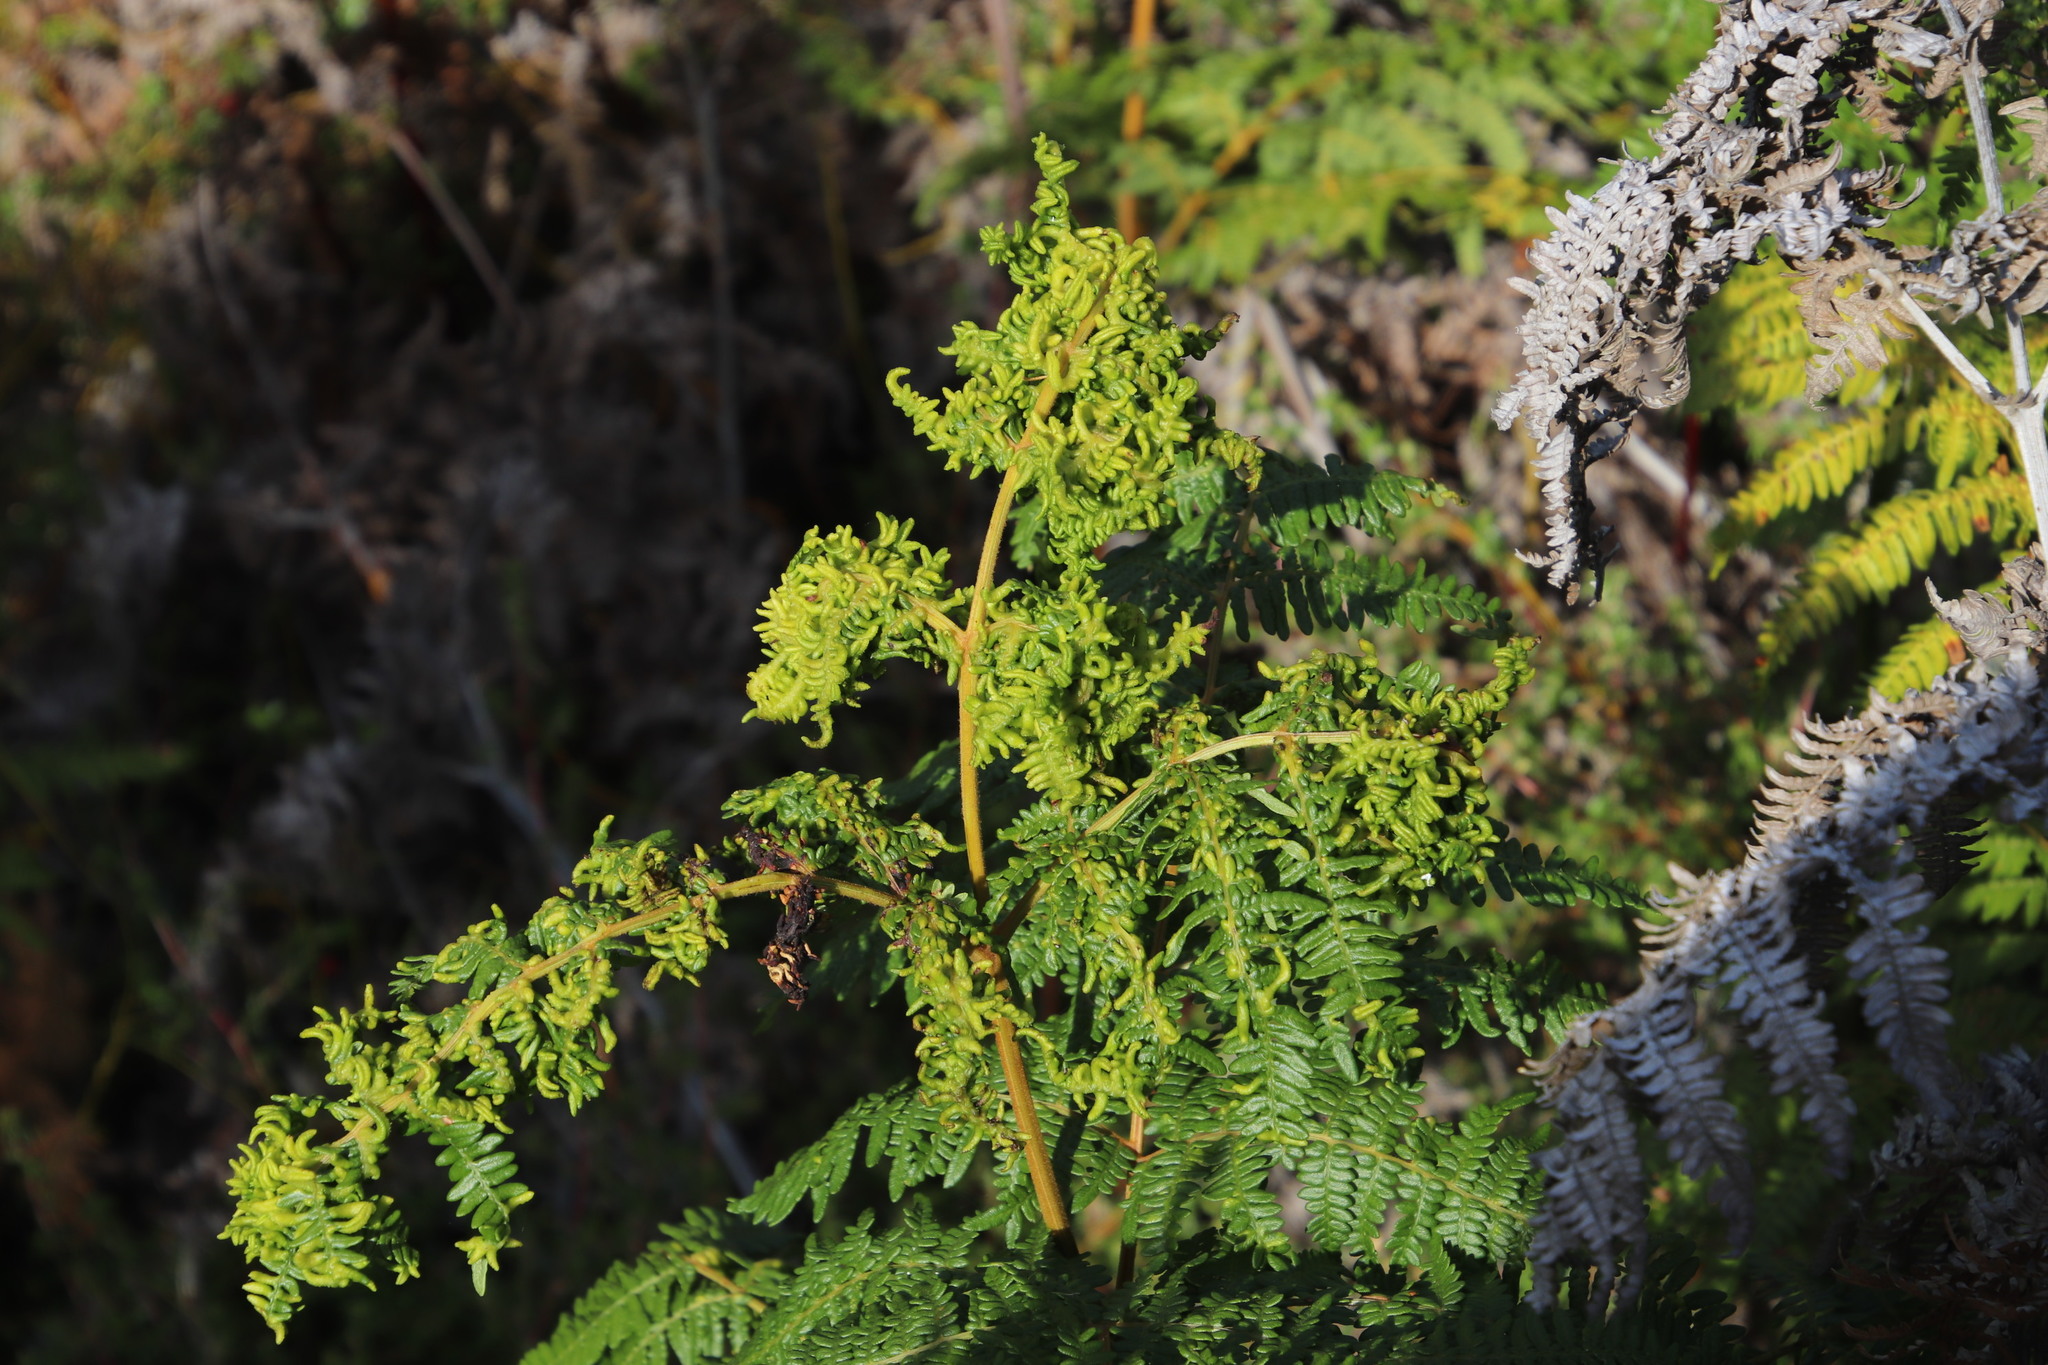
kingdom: Animalia
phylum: Arthropoda
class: Arachnida
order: Trombidiformes
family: Eriophyidae
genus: Eriophyes
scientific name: Eriophyes
